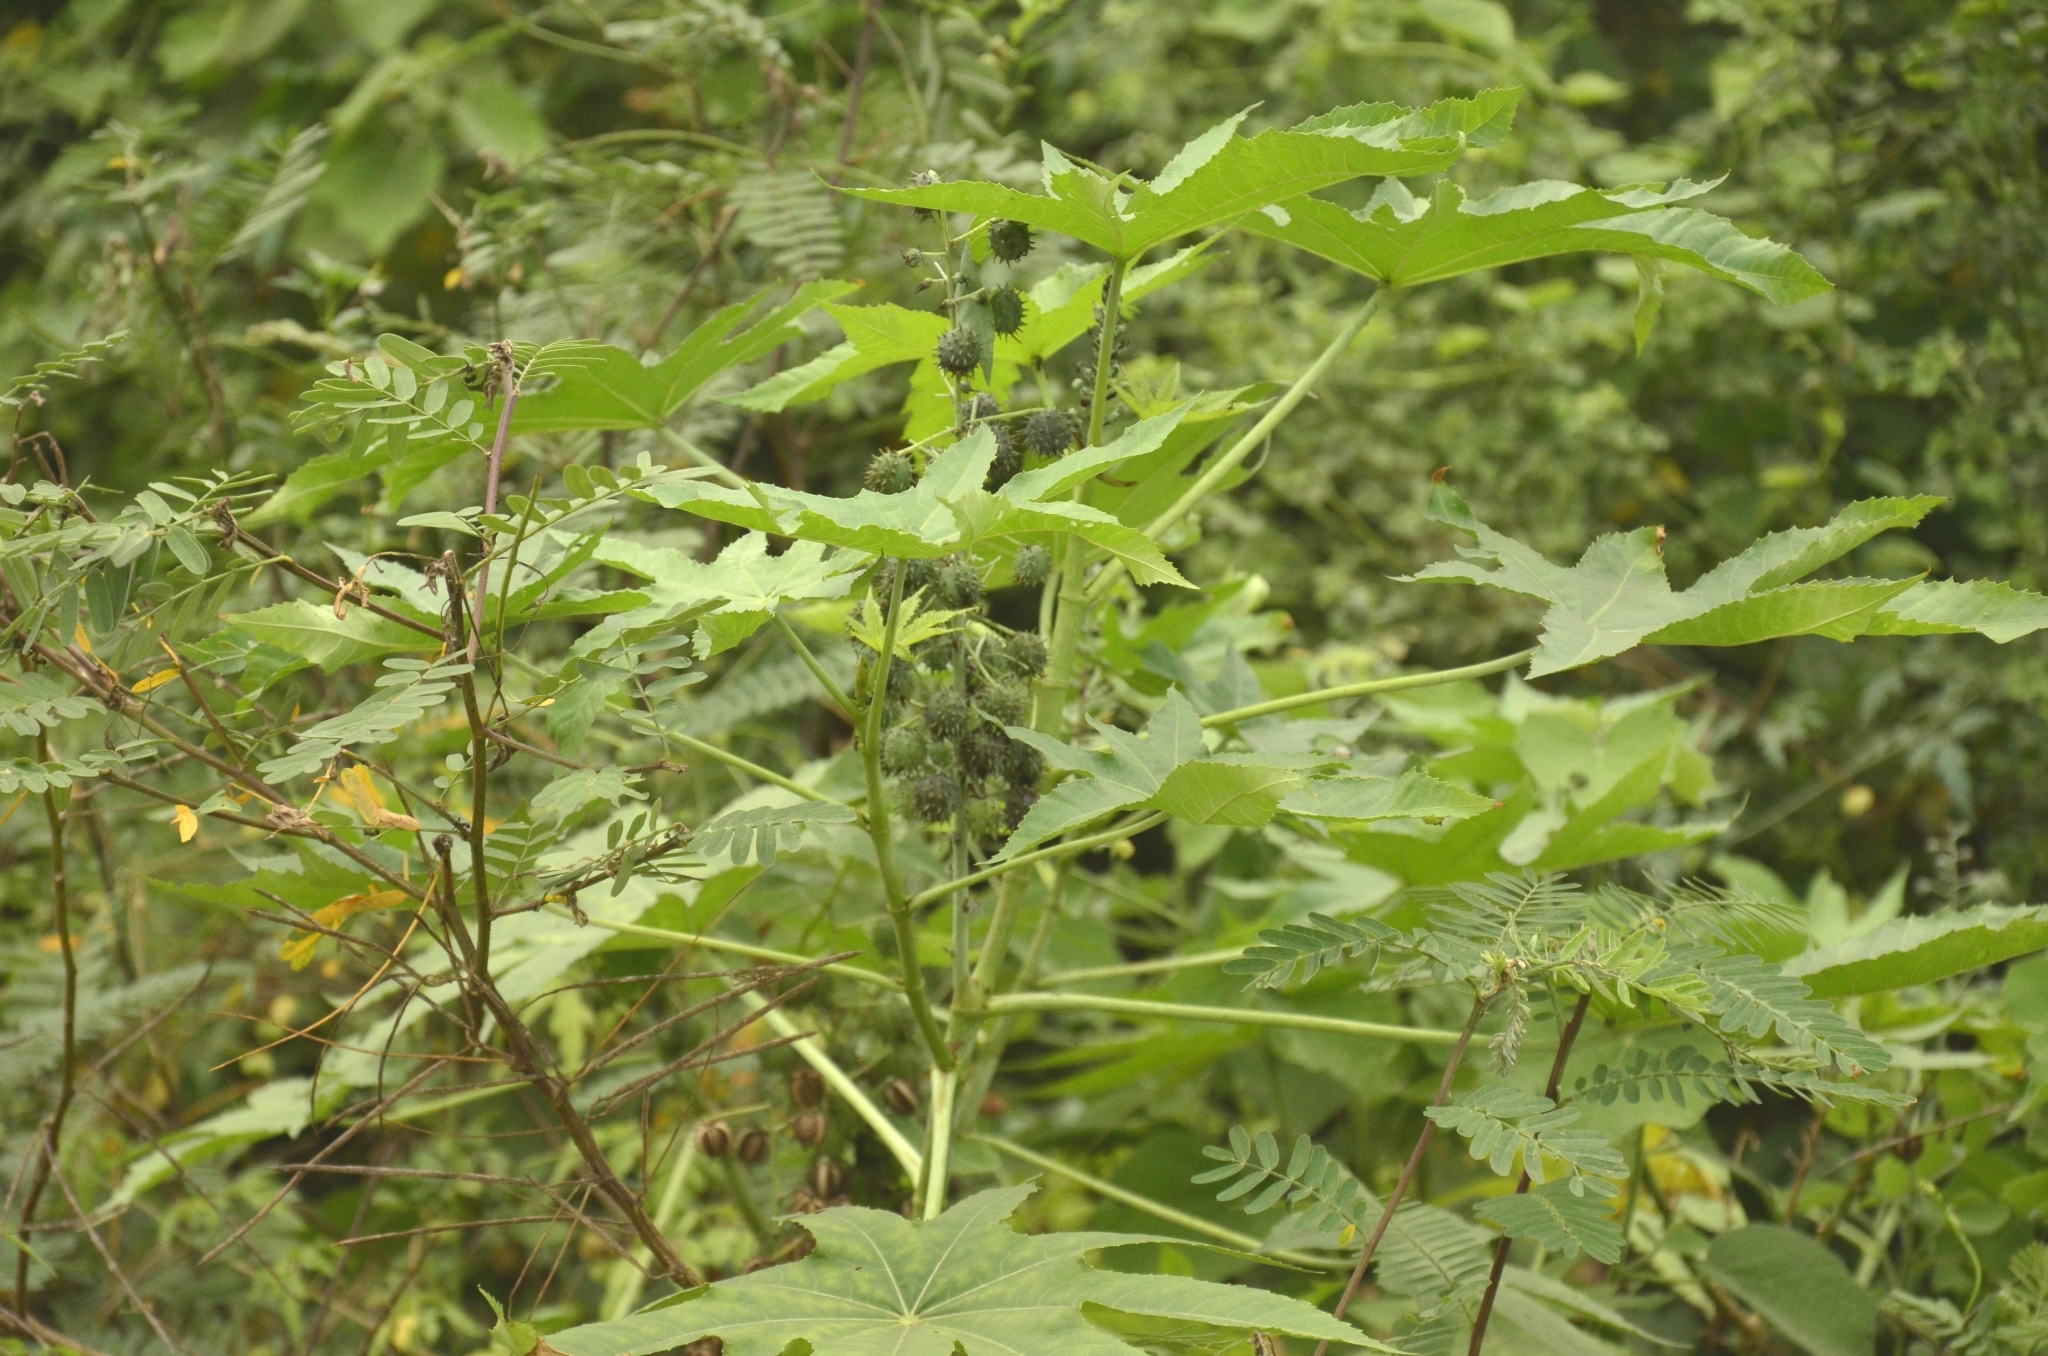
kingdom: Plantae
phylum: Tracheophyta
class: Magnoliopsida
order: Malpighiales
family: Euphorbiaceae
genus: Ricinus
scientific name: Ricinus communis
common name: Castor-oil-plant
